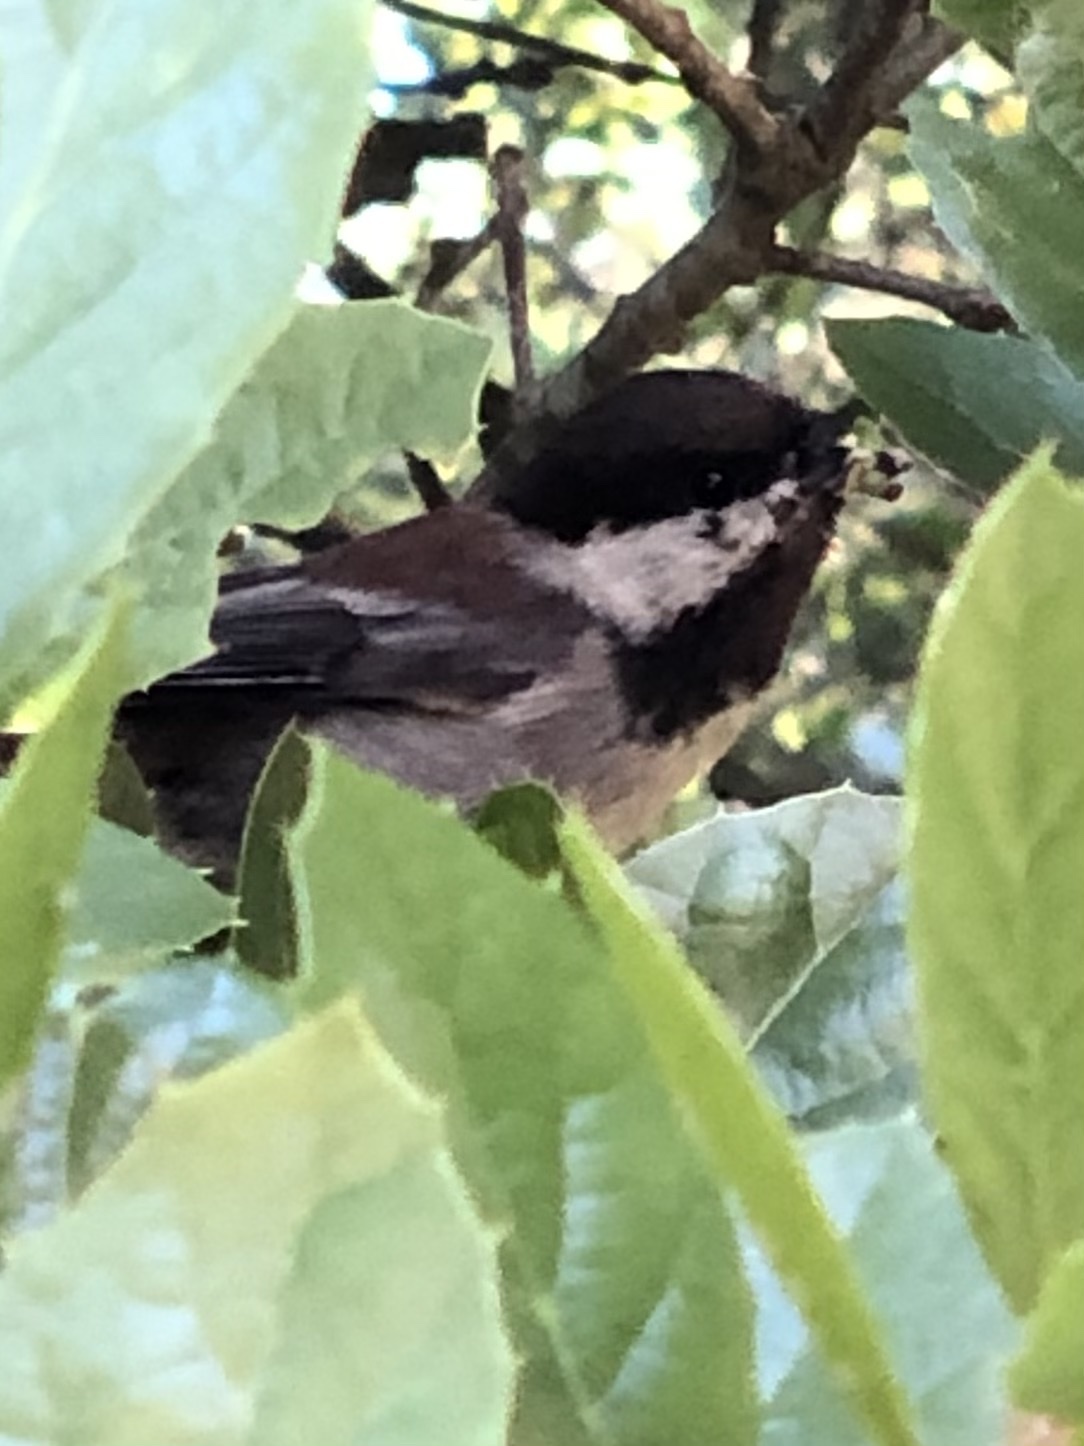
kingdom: Animalia
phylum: Chordata
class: Aves
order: Passeriformes
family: Paridae
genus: Poecile
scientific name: Poecile rufescens
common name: Chestnut-backed chickadee
